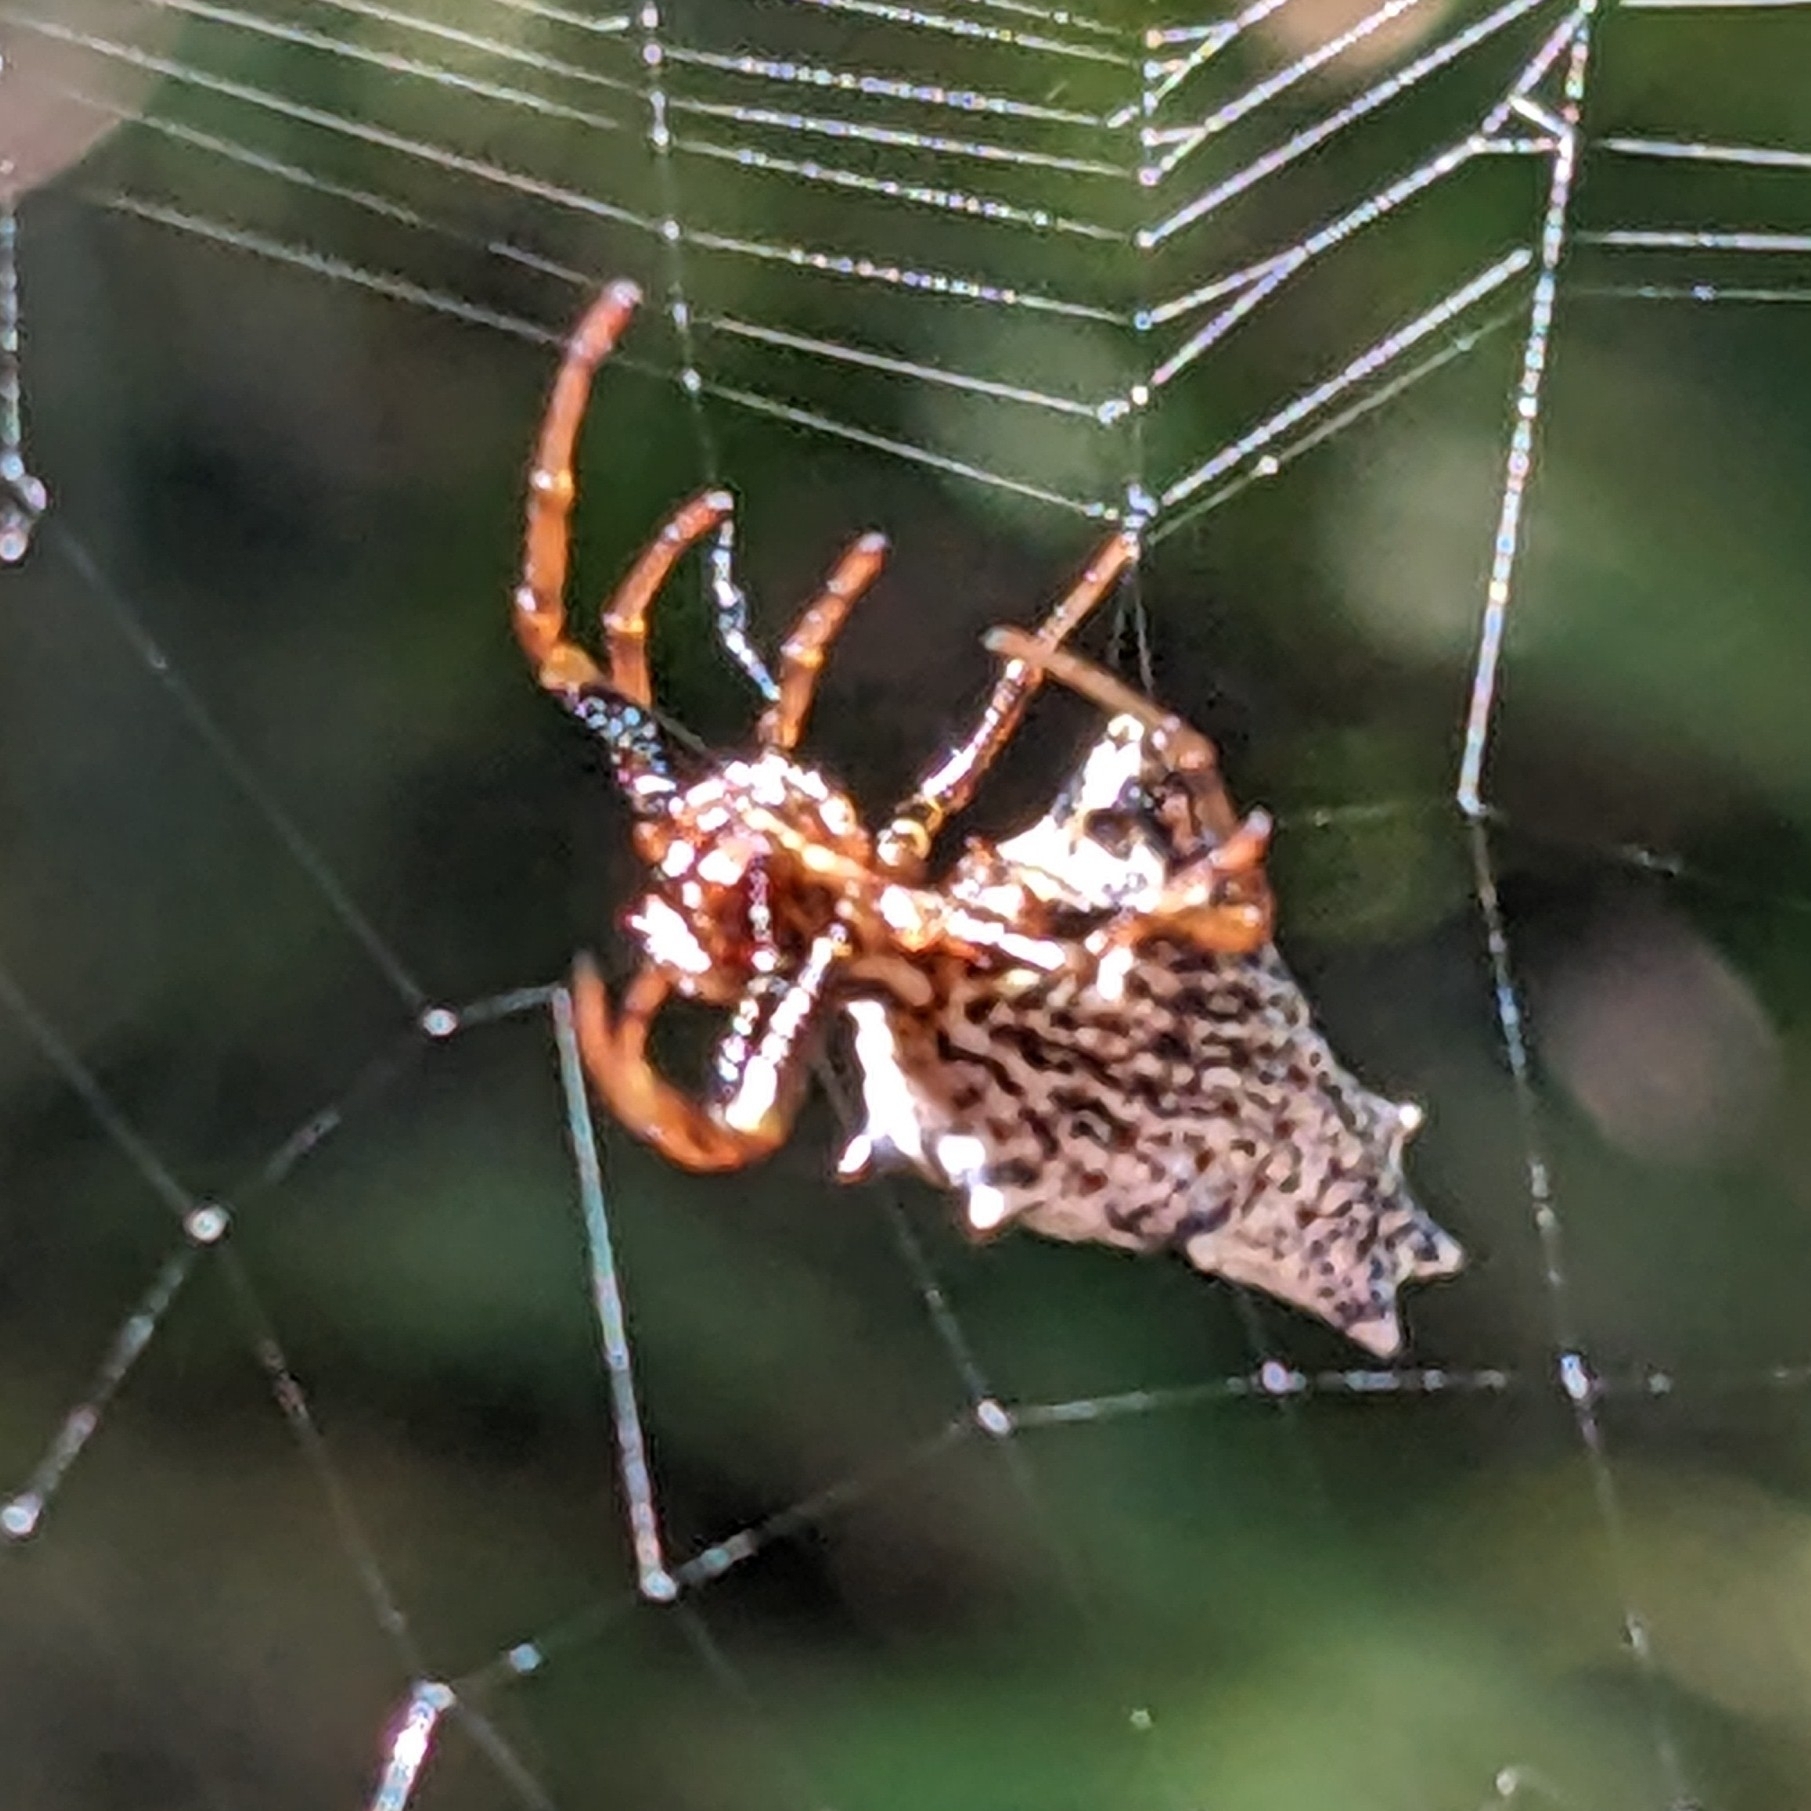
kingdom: Animalia
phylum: Arthropoda
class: Arachnida
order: Araneae
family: Araneidae
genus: Micrathena
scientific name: Micrathena gracilis
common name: Orb weavers
